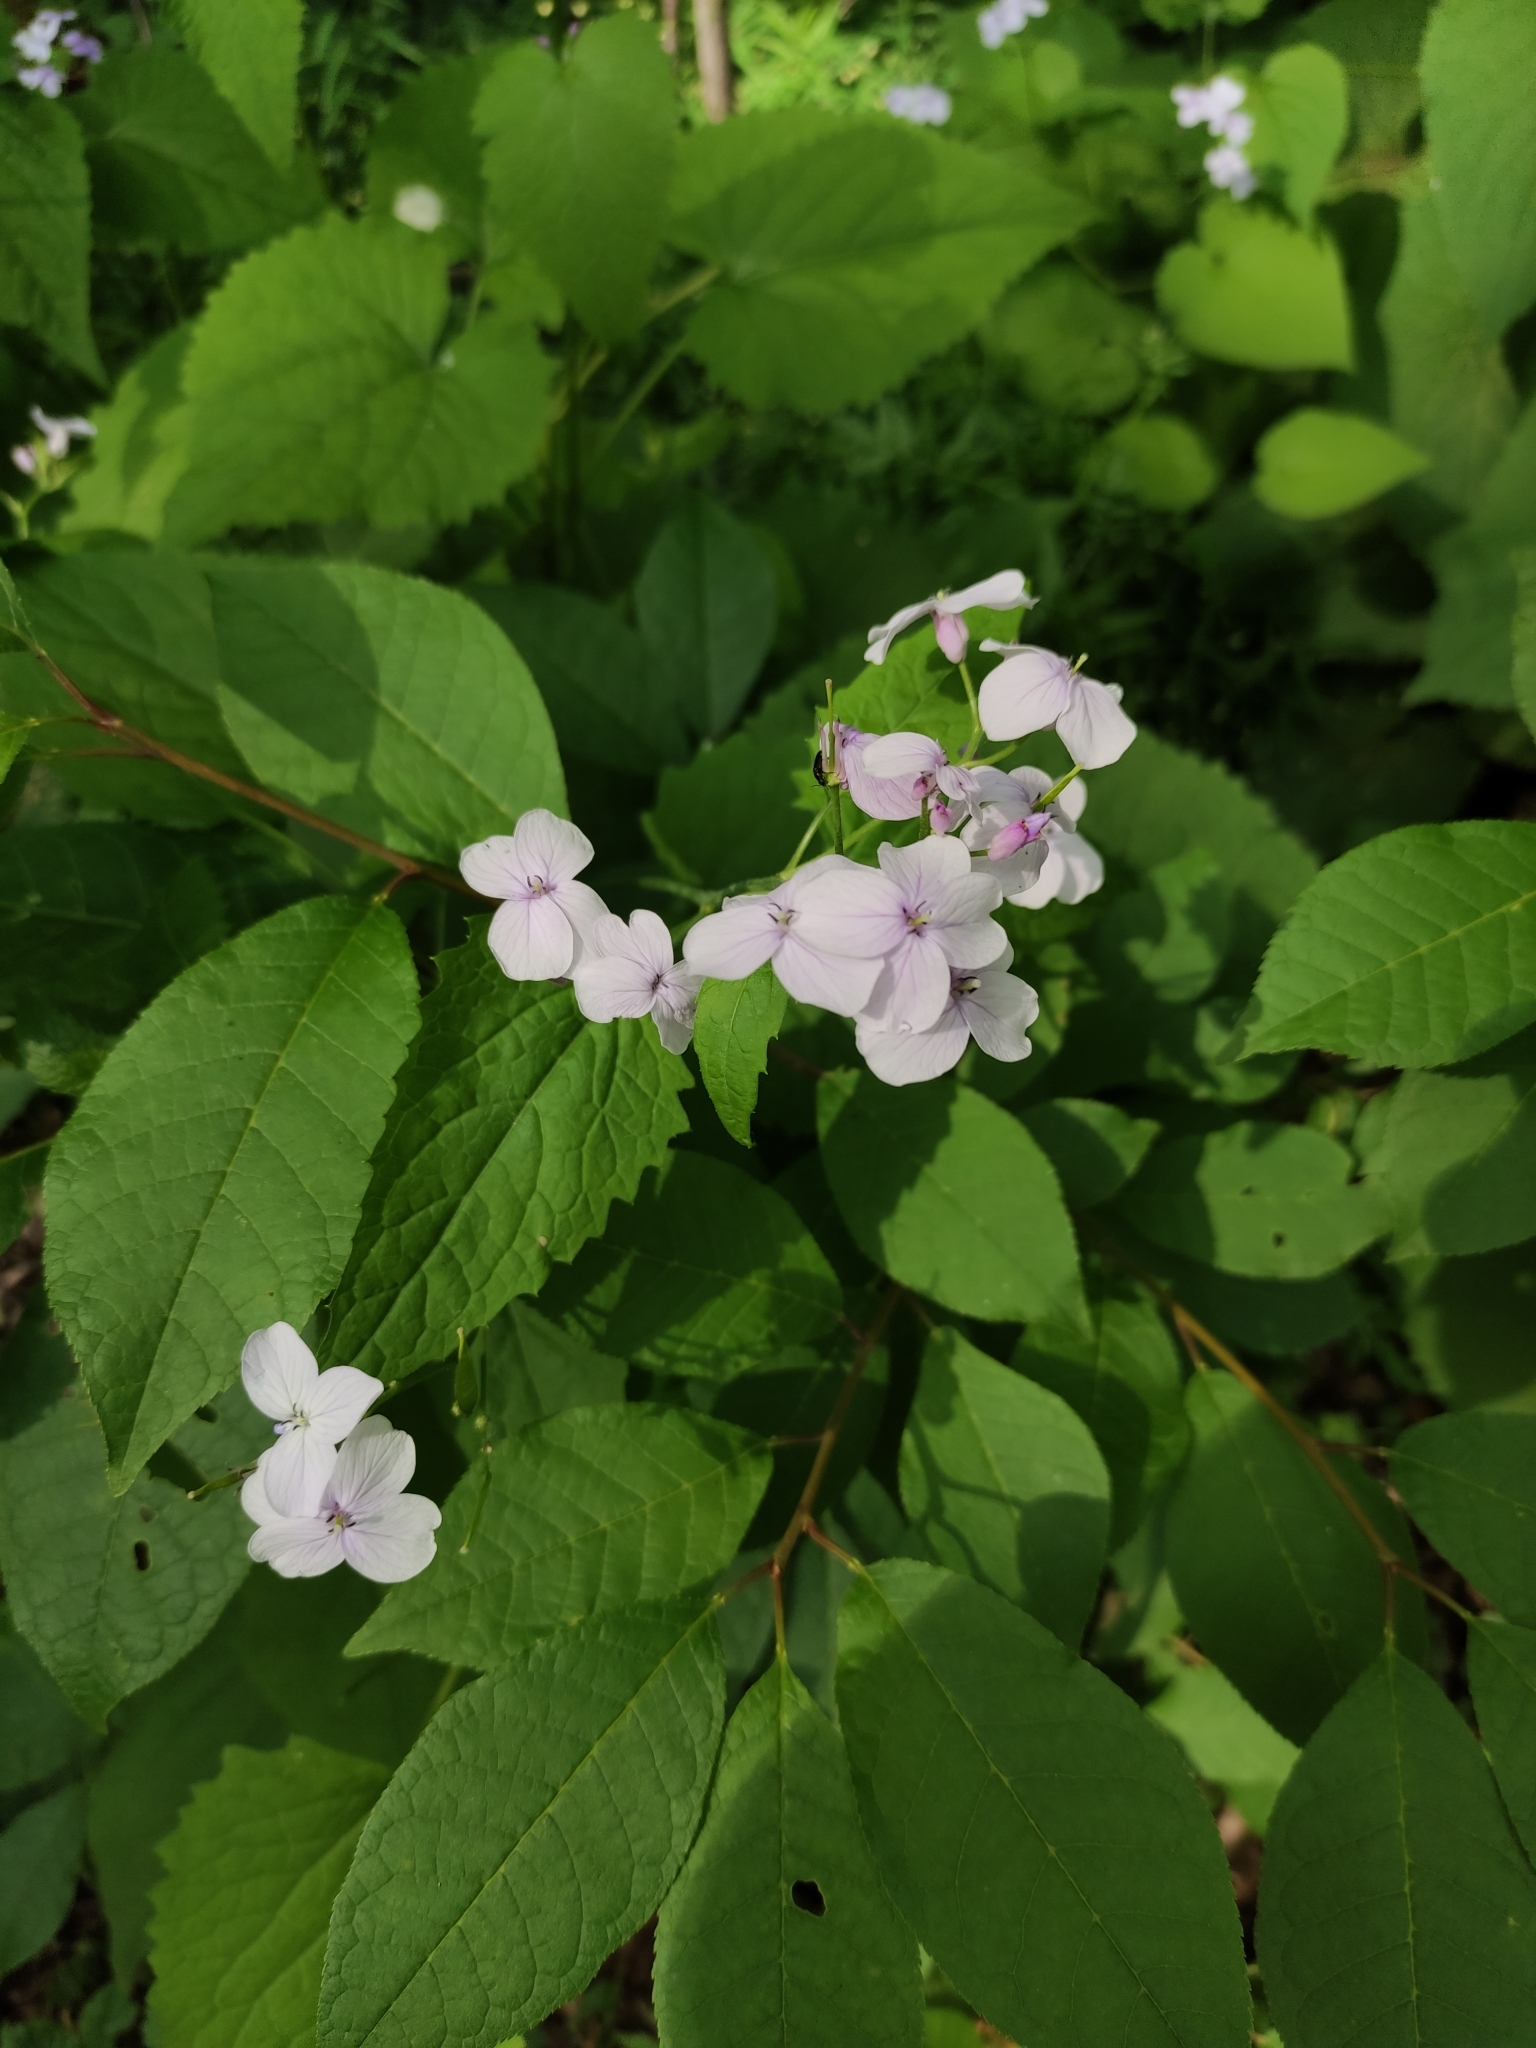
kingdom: Plantae
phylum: Tracheophyta
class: Magnoliopsida
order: Brassicales
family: Brassicaceae
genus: Lunaria
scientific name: Lunaria rediviva
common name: Perennial honesty
